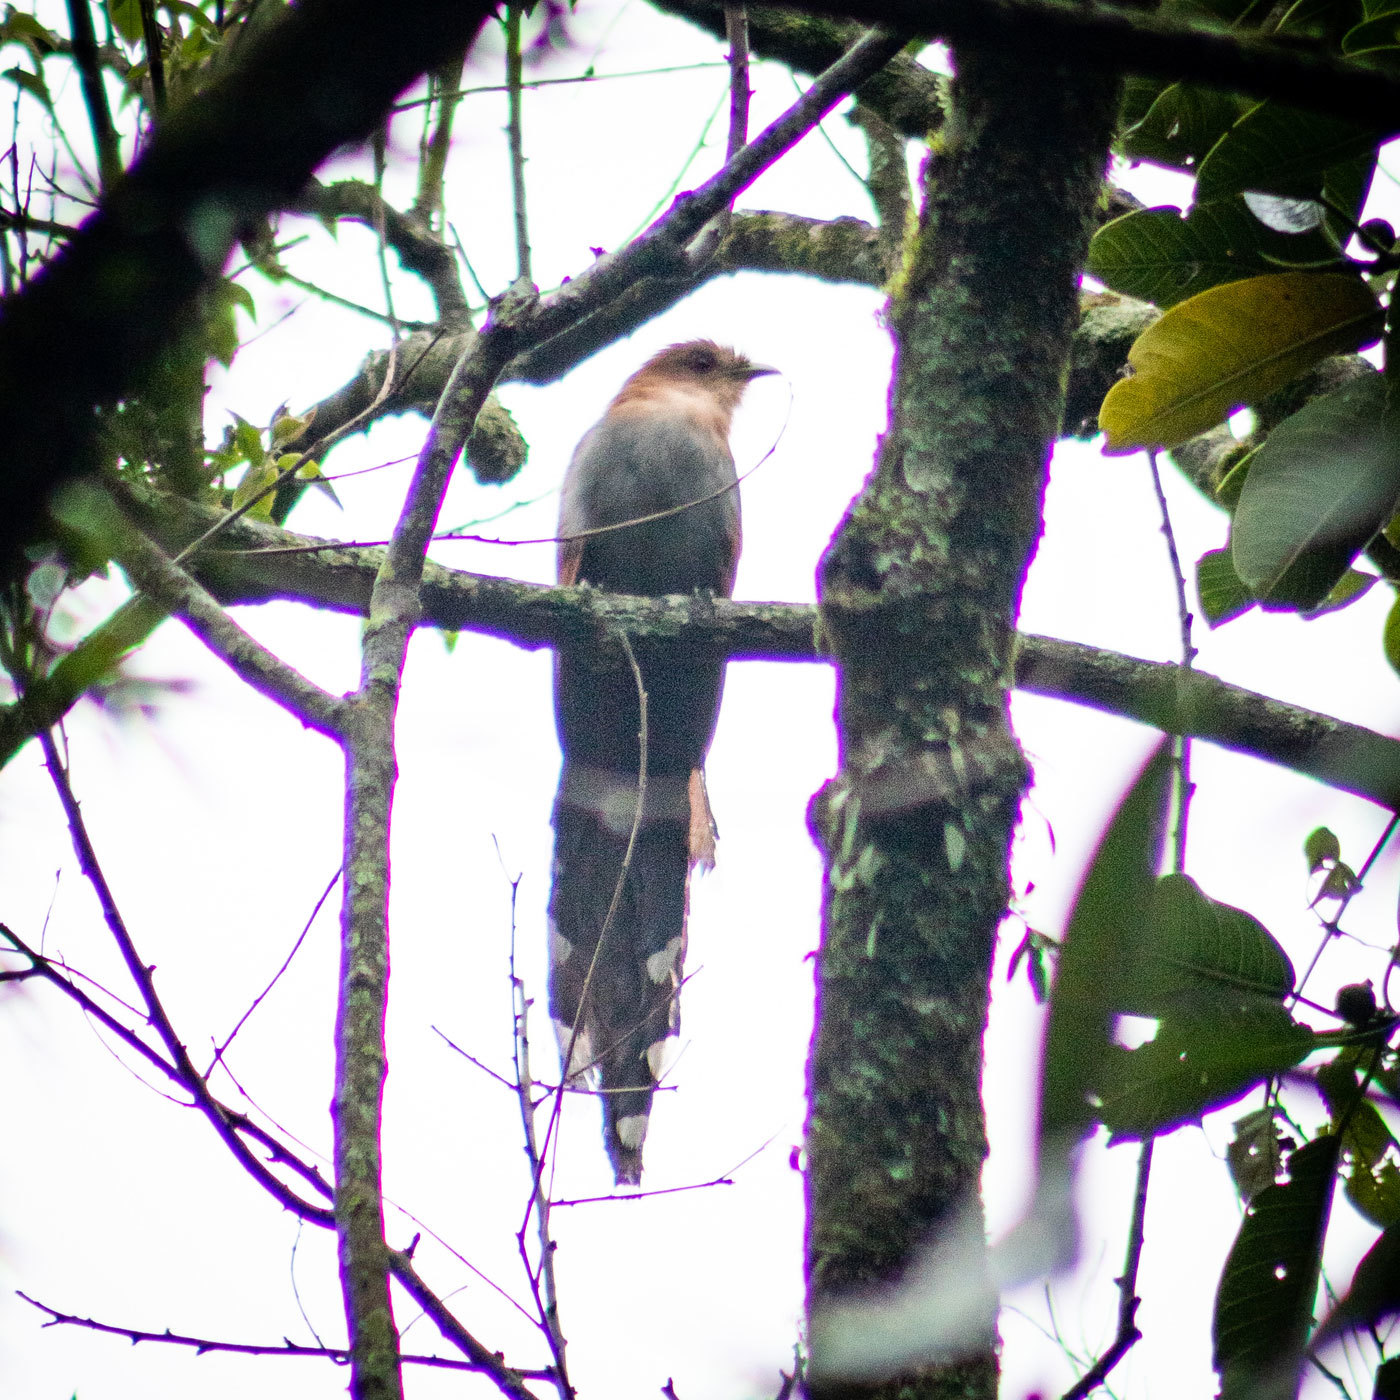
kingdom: Animalia
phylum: Chordata
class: Aves
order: Cuculiformes
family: Cuculidae
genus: Piaya
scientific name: Piaya cayana
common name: Squirrel cuckoo
